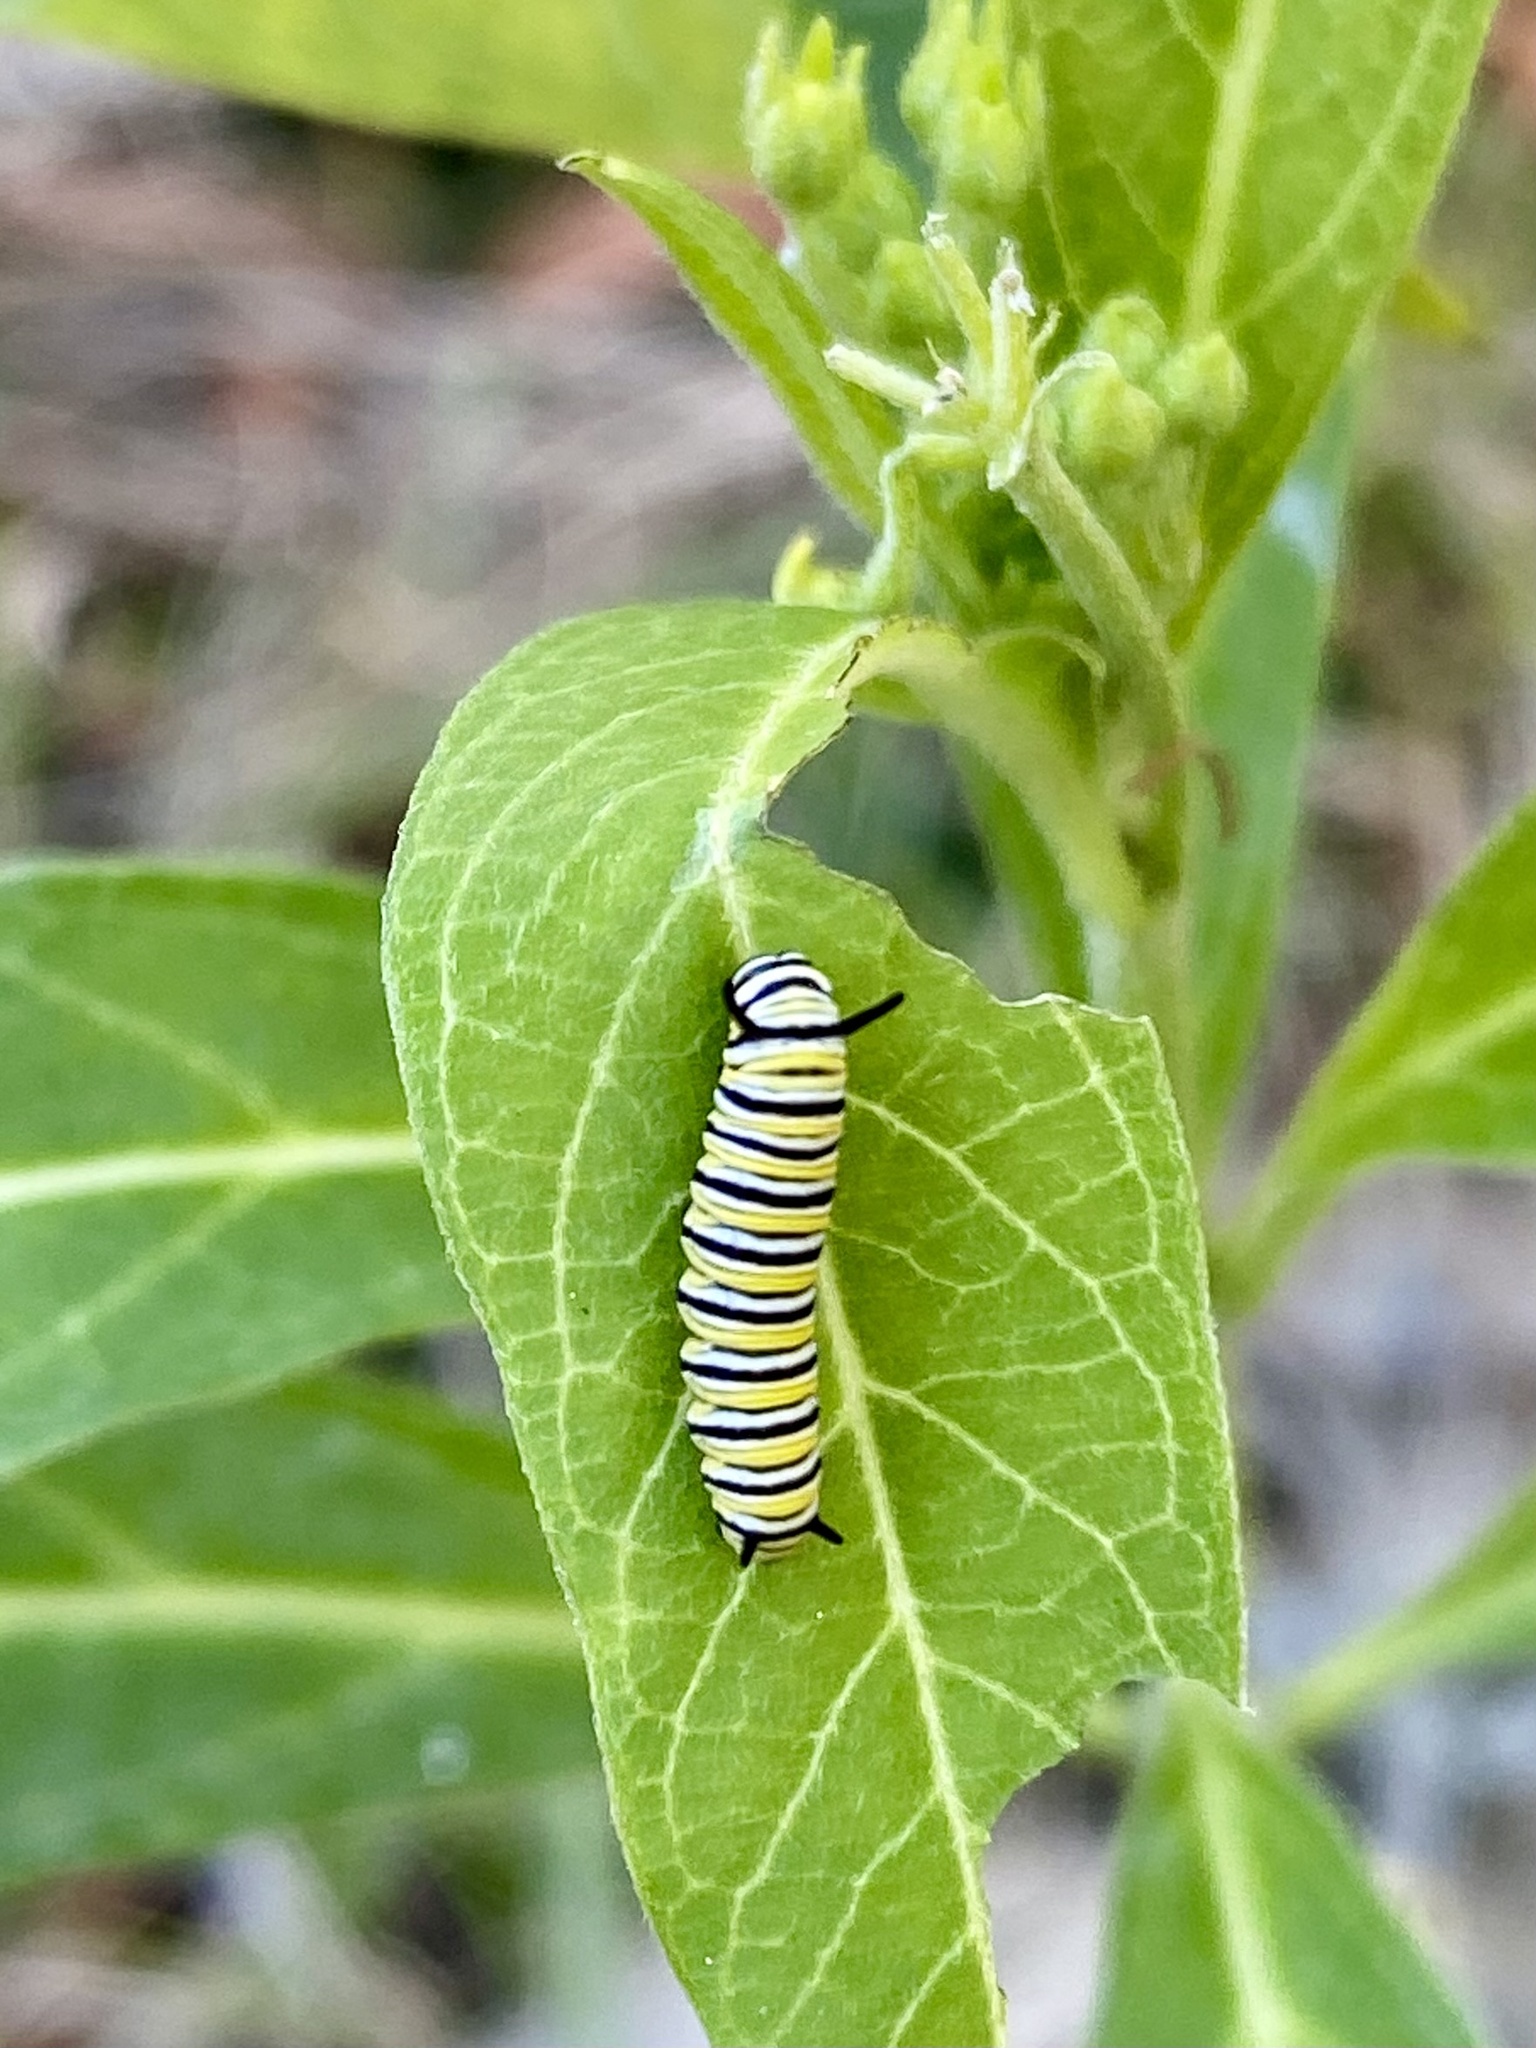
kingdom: Animalia
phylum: Arthropoda
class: Insecta
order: Lepidoptera
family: Nymphalidae
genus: Danaus
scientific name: Danaus plexippus
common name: Monarch
